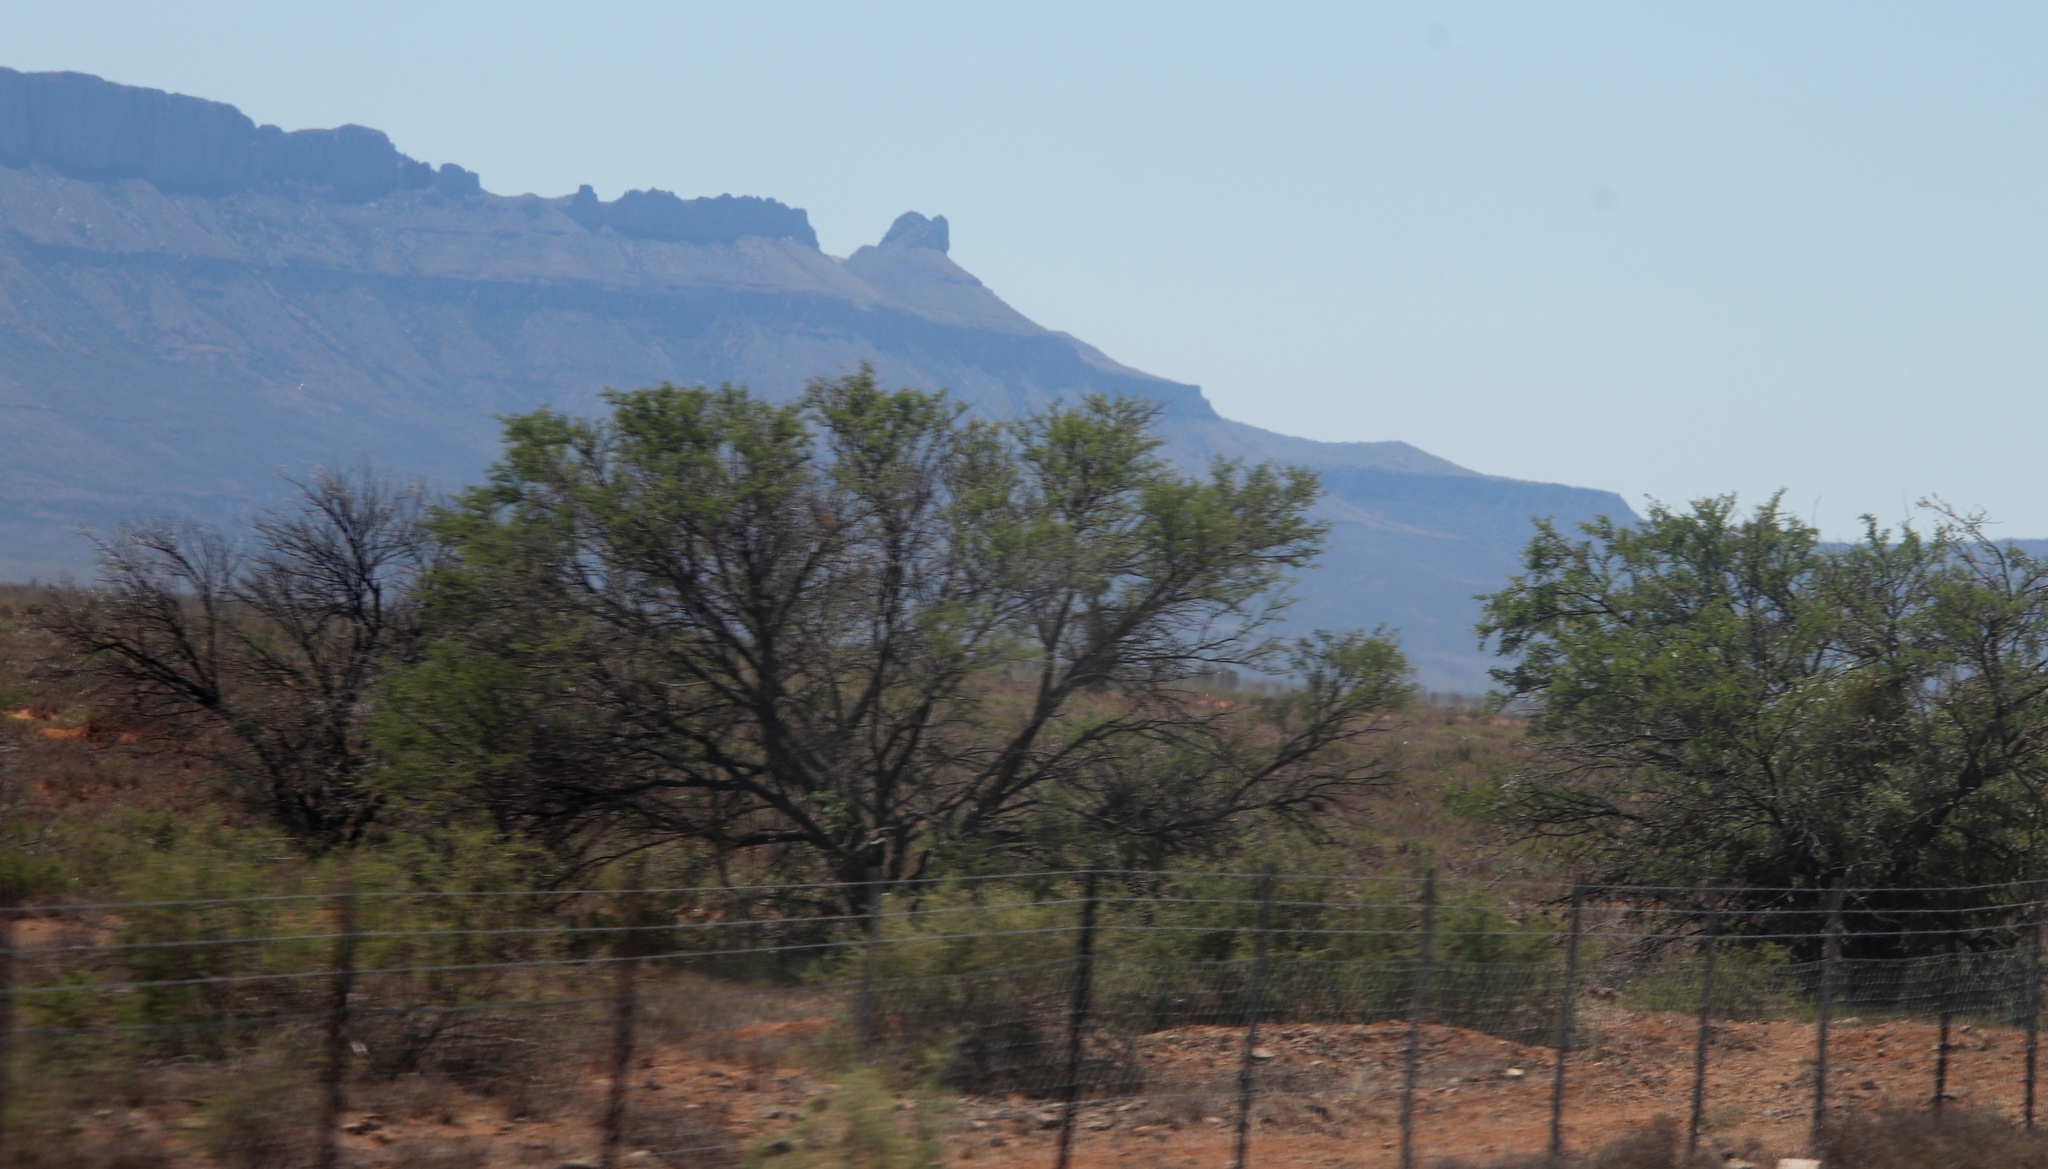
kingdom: Plantae
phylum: Tracheophyta
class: Magnoliopsida
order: Fabales
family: Fabaceae
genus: Vachellia
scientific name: Vachellia karroo
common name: Sweet thorn
